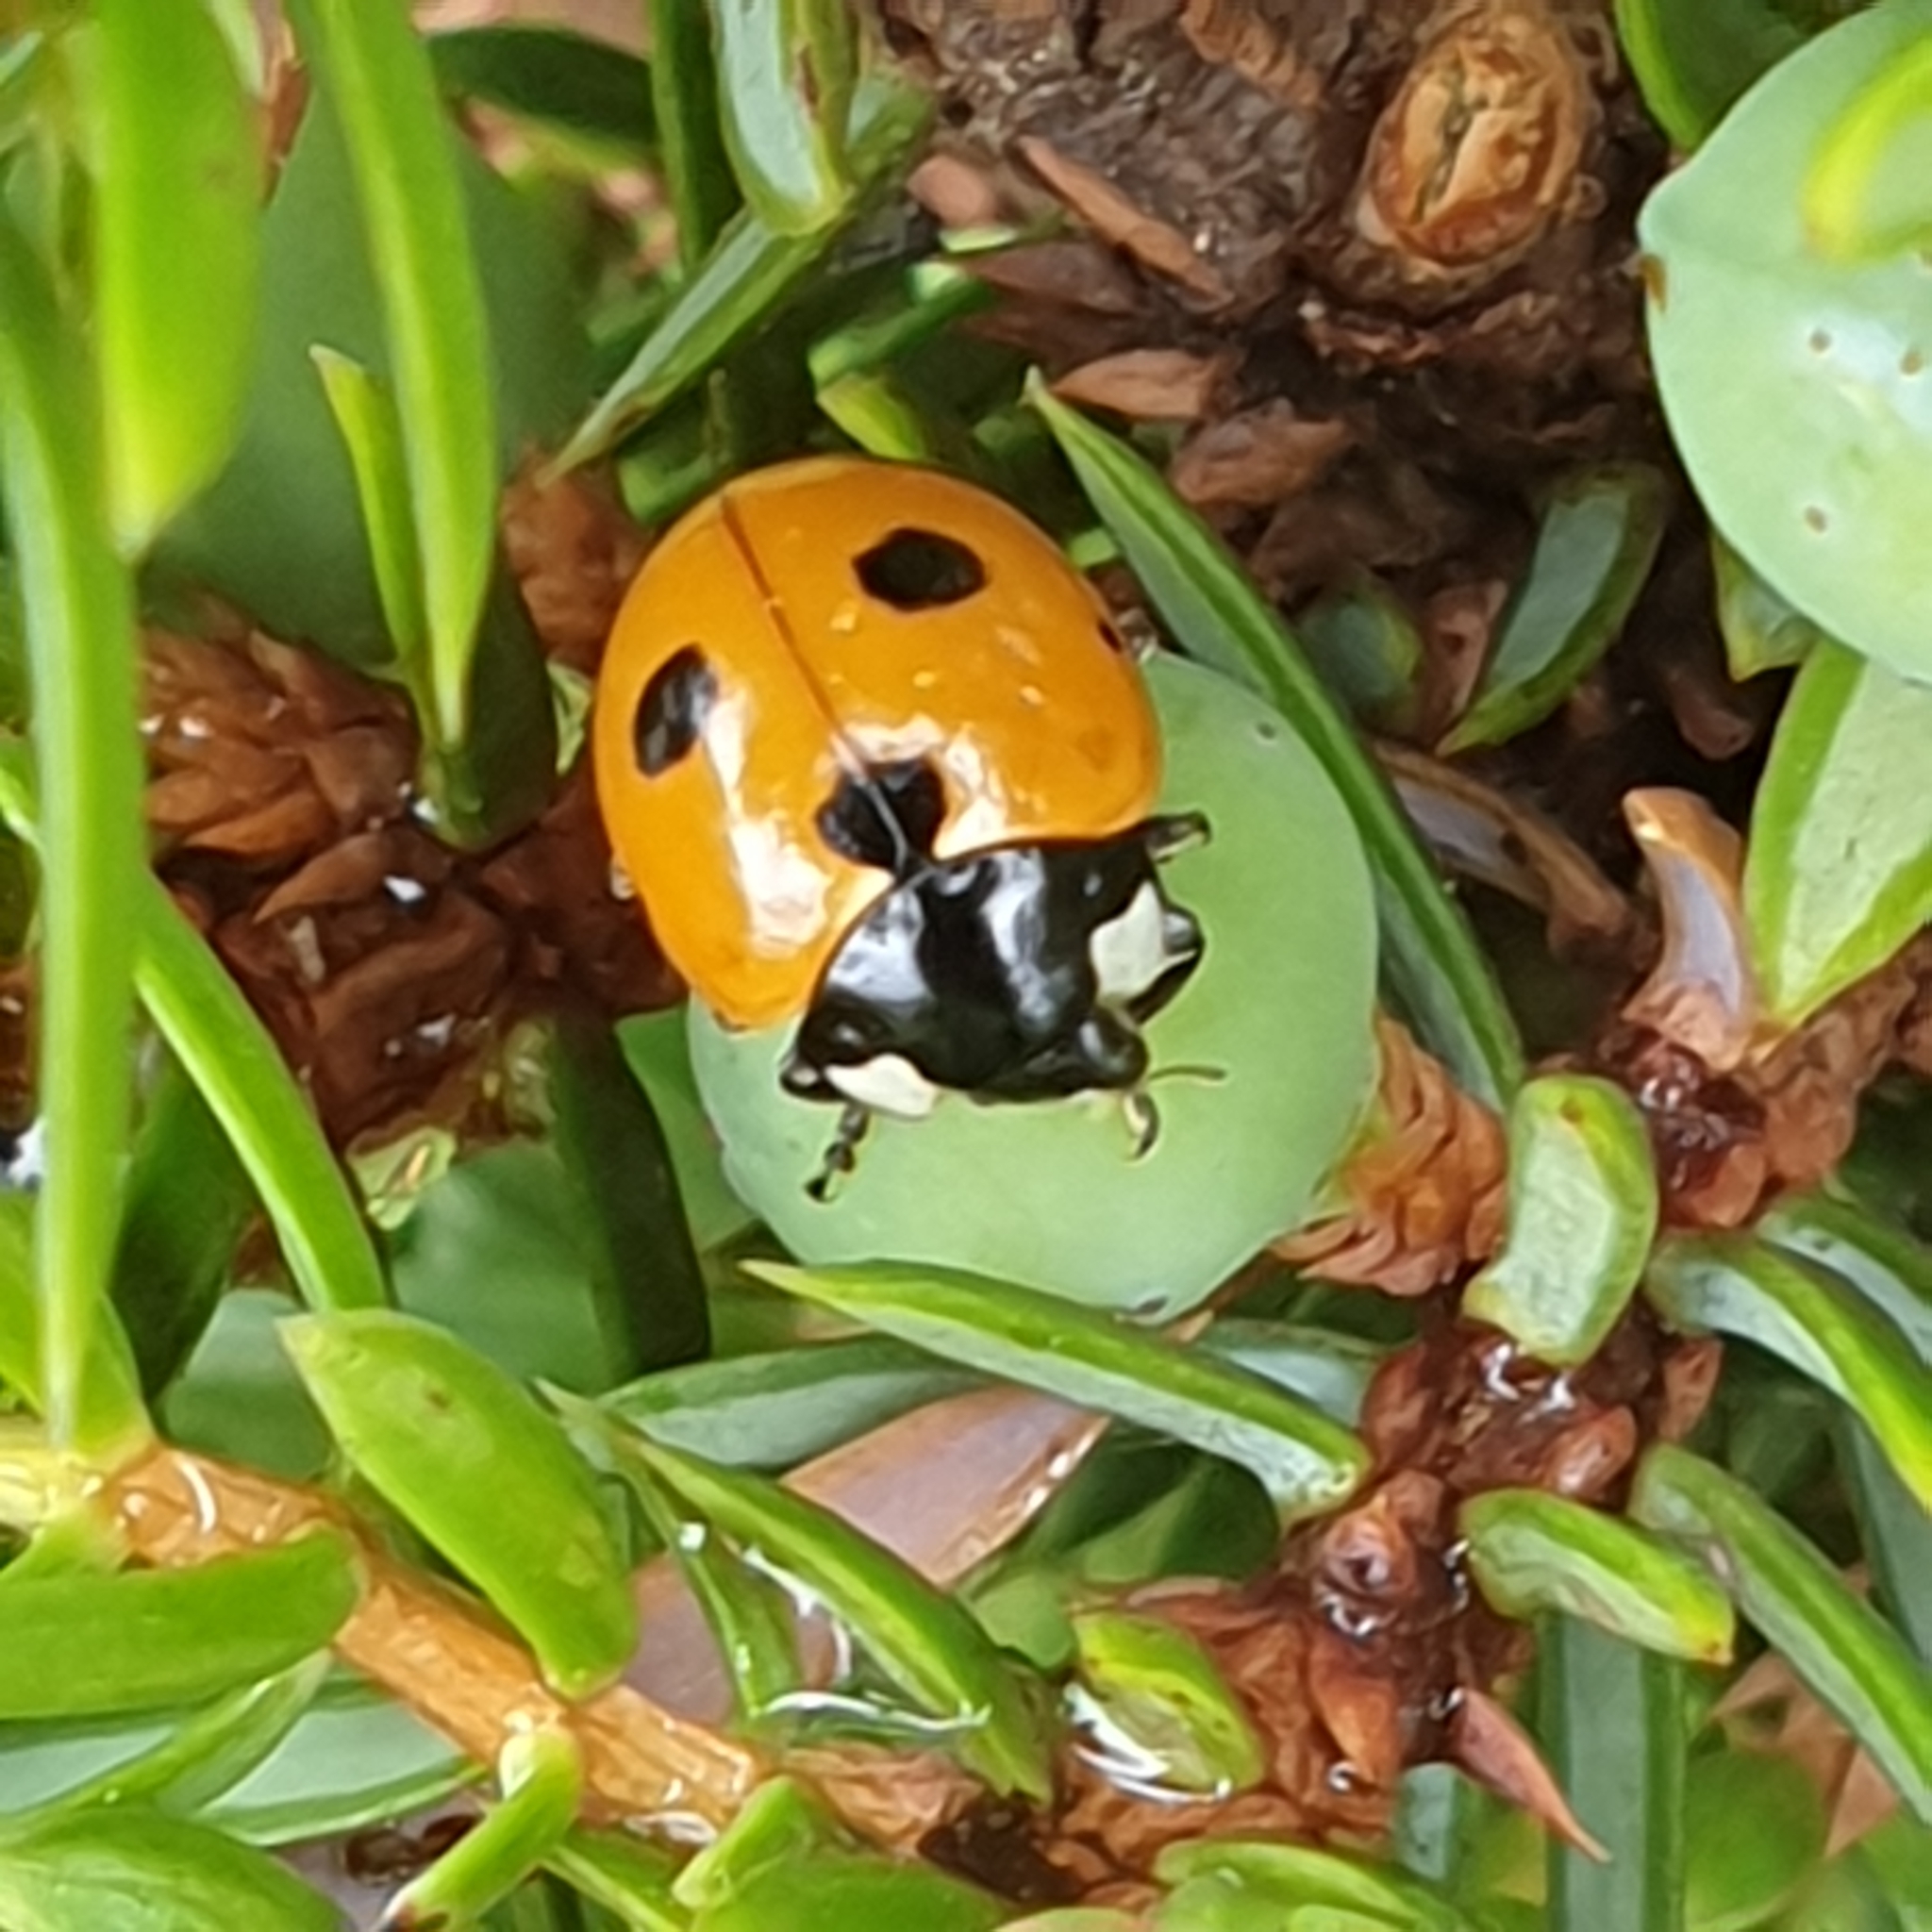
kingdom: Animalia
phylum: Arthropoda
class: Insecta
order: Coleoptera
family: Coccinellidae
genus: Coccinella
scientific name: Coccinella septempunctata
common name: Sevenspotted lady beetle
